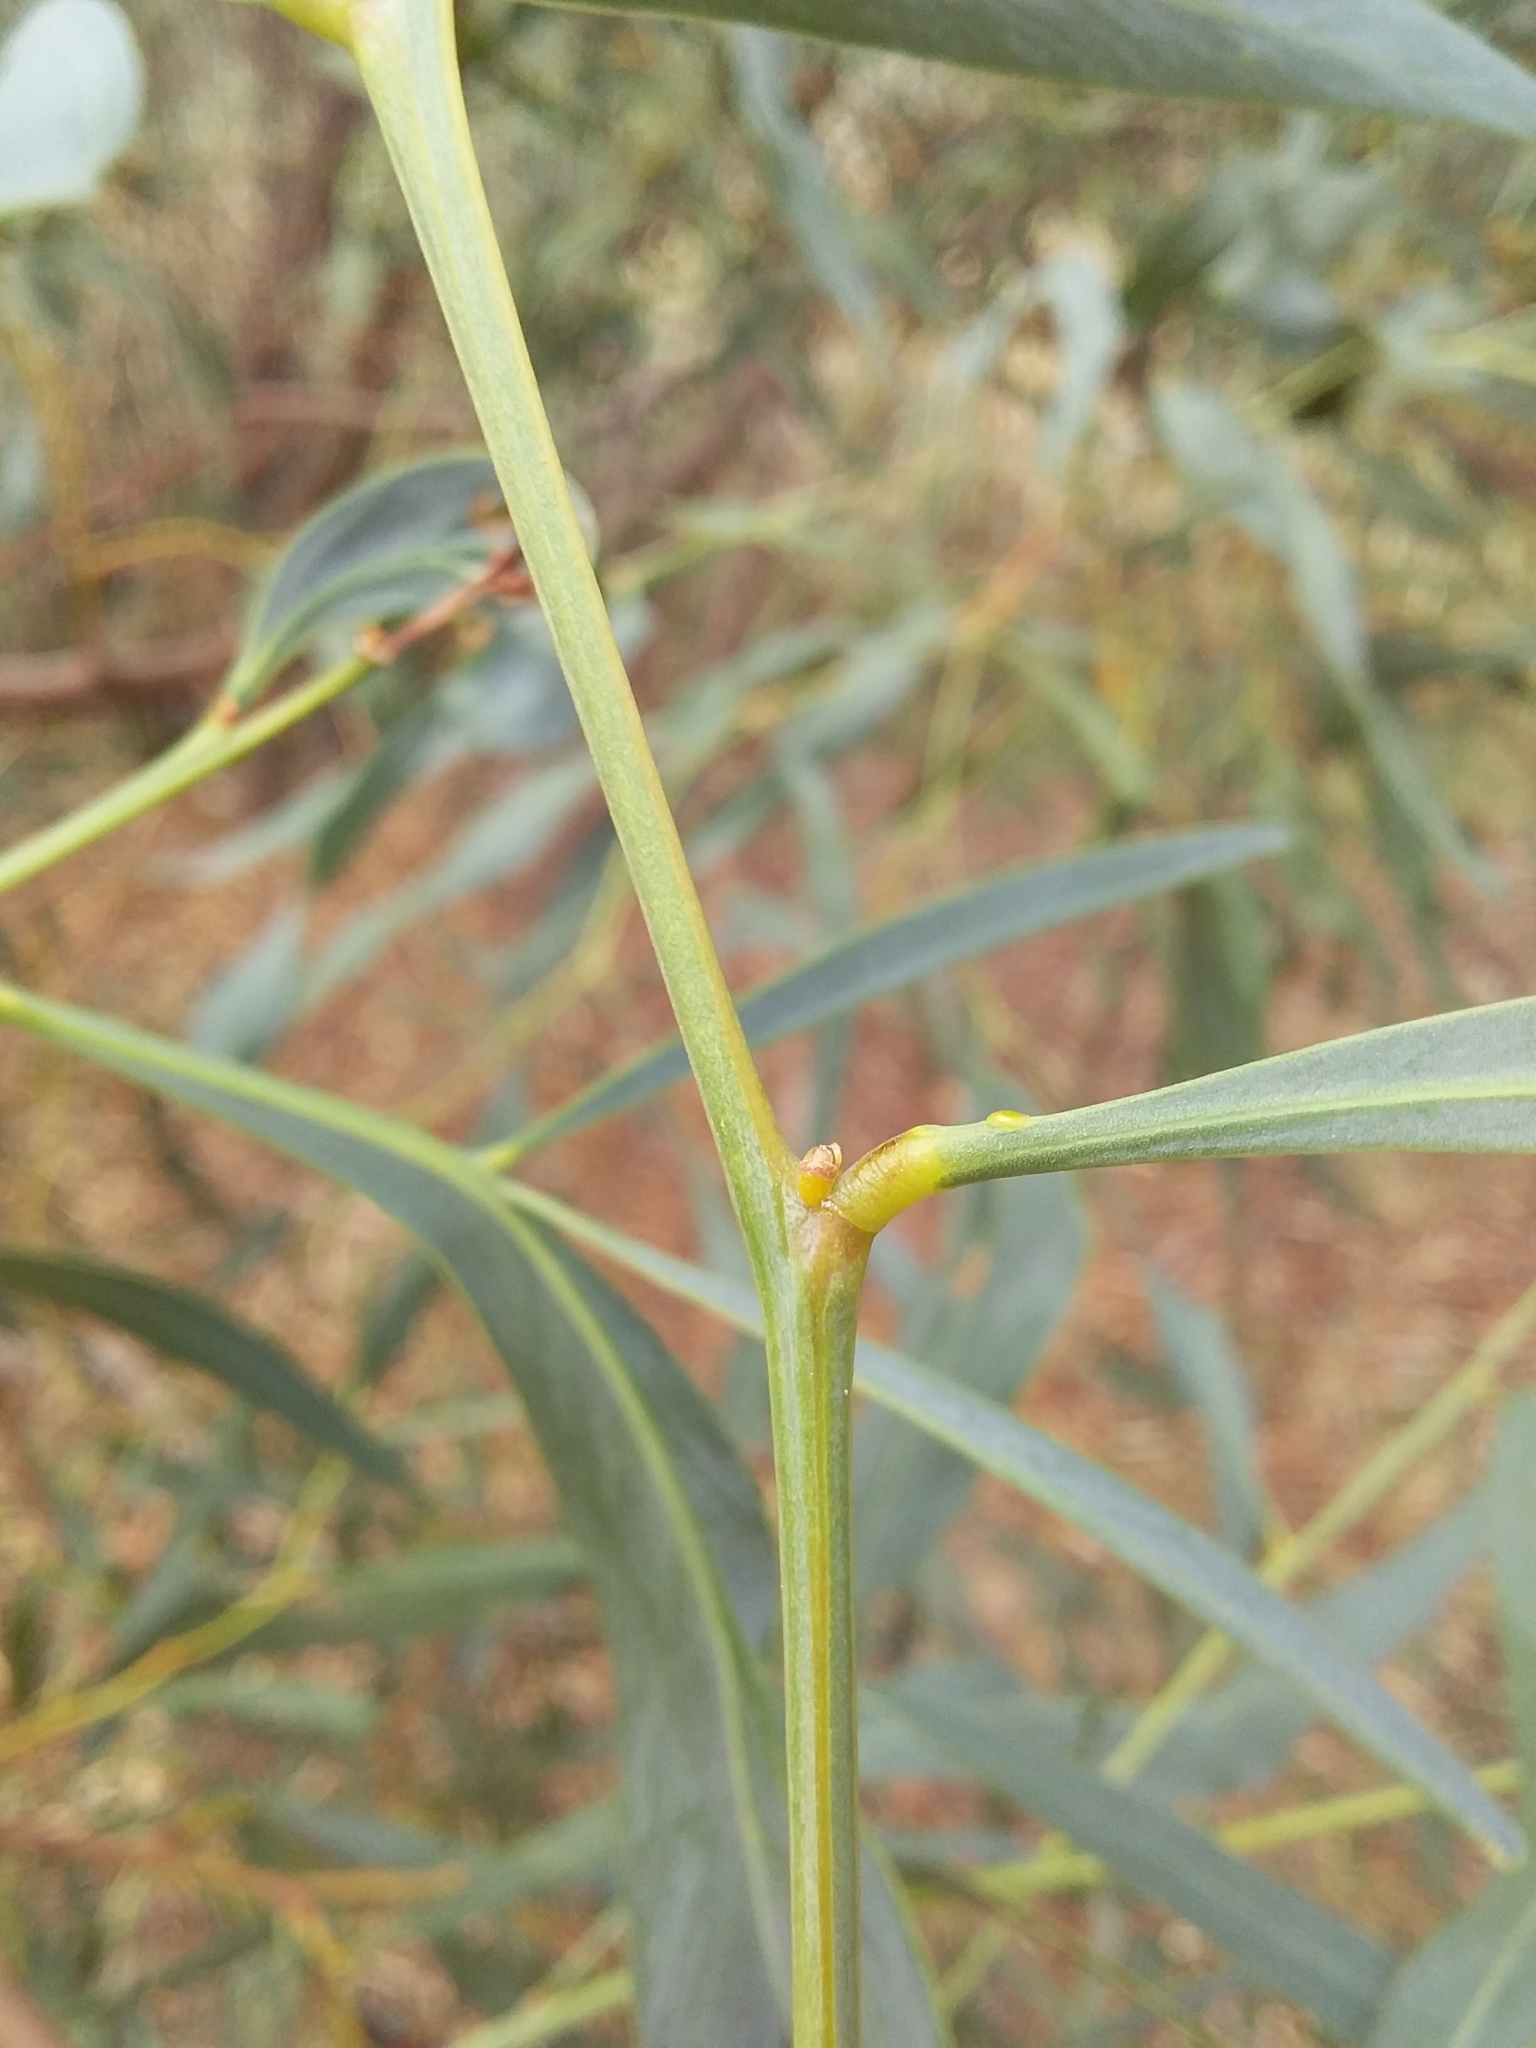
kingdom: Plantae
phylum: Tracheophyta
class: Magnoliopsida
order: Fabales
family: Fabaceae
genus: Acacia
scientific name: Acacia saligna
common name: Orange wattle
